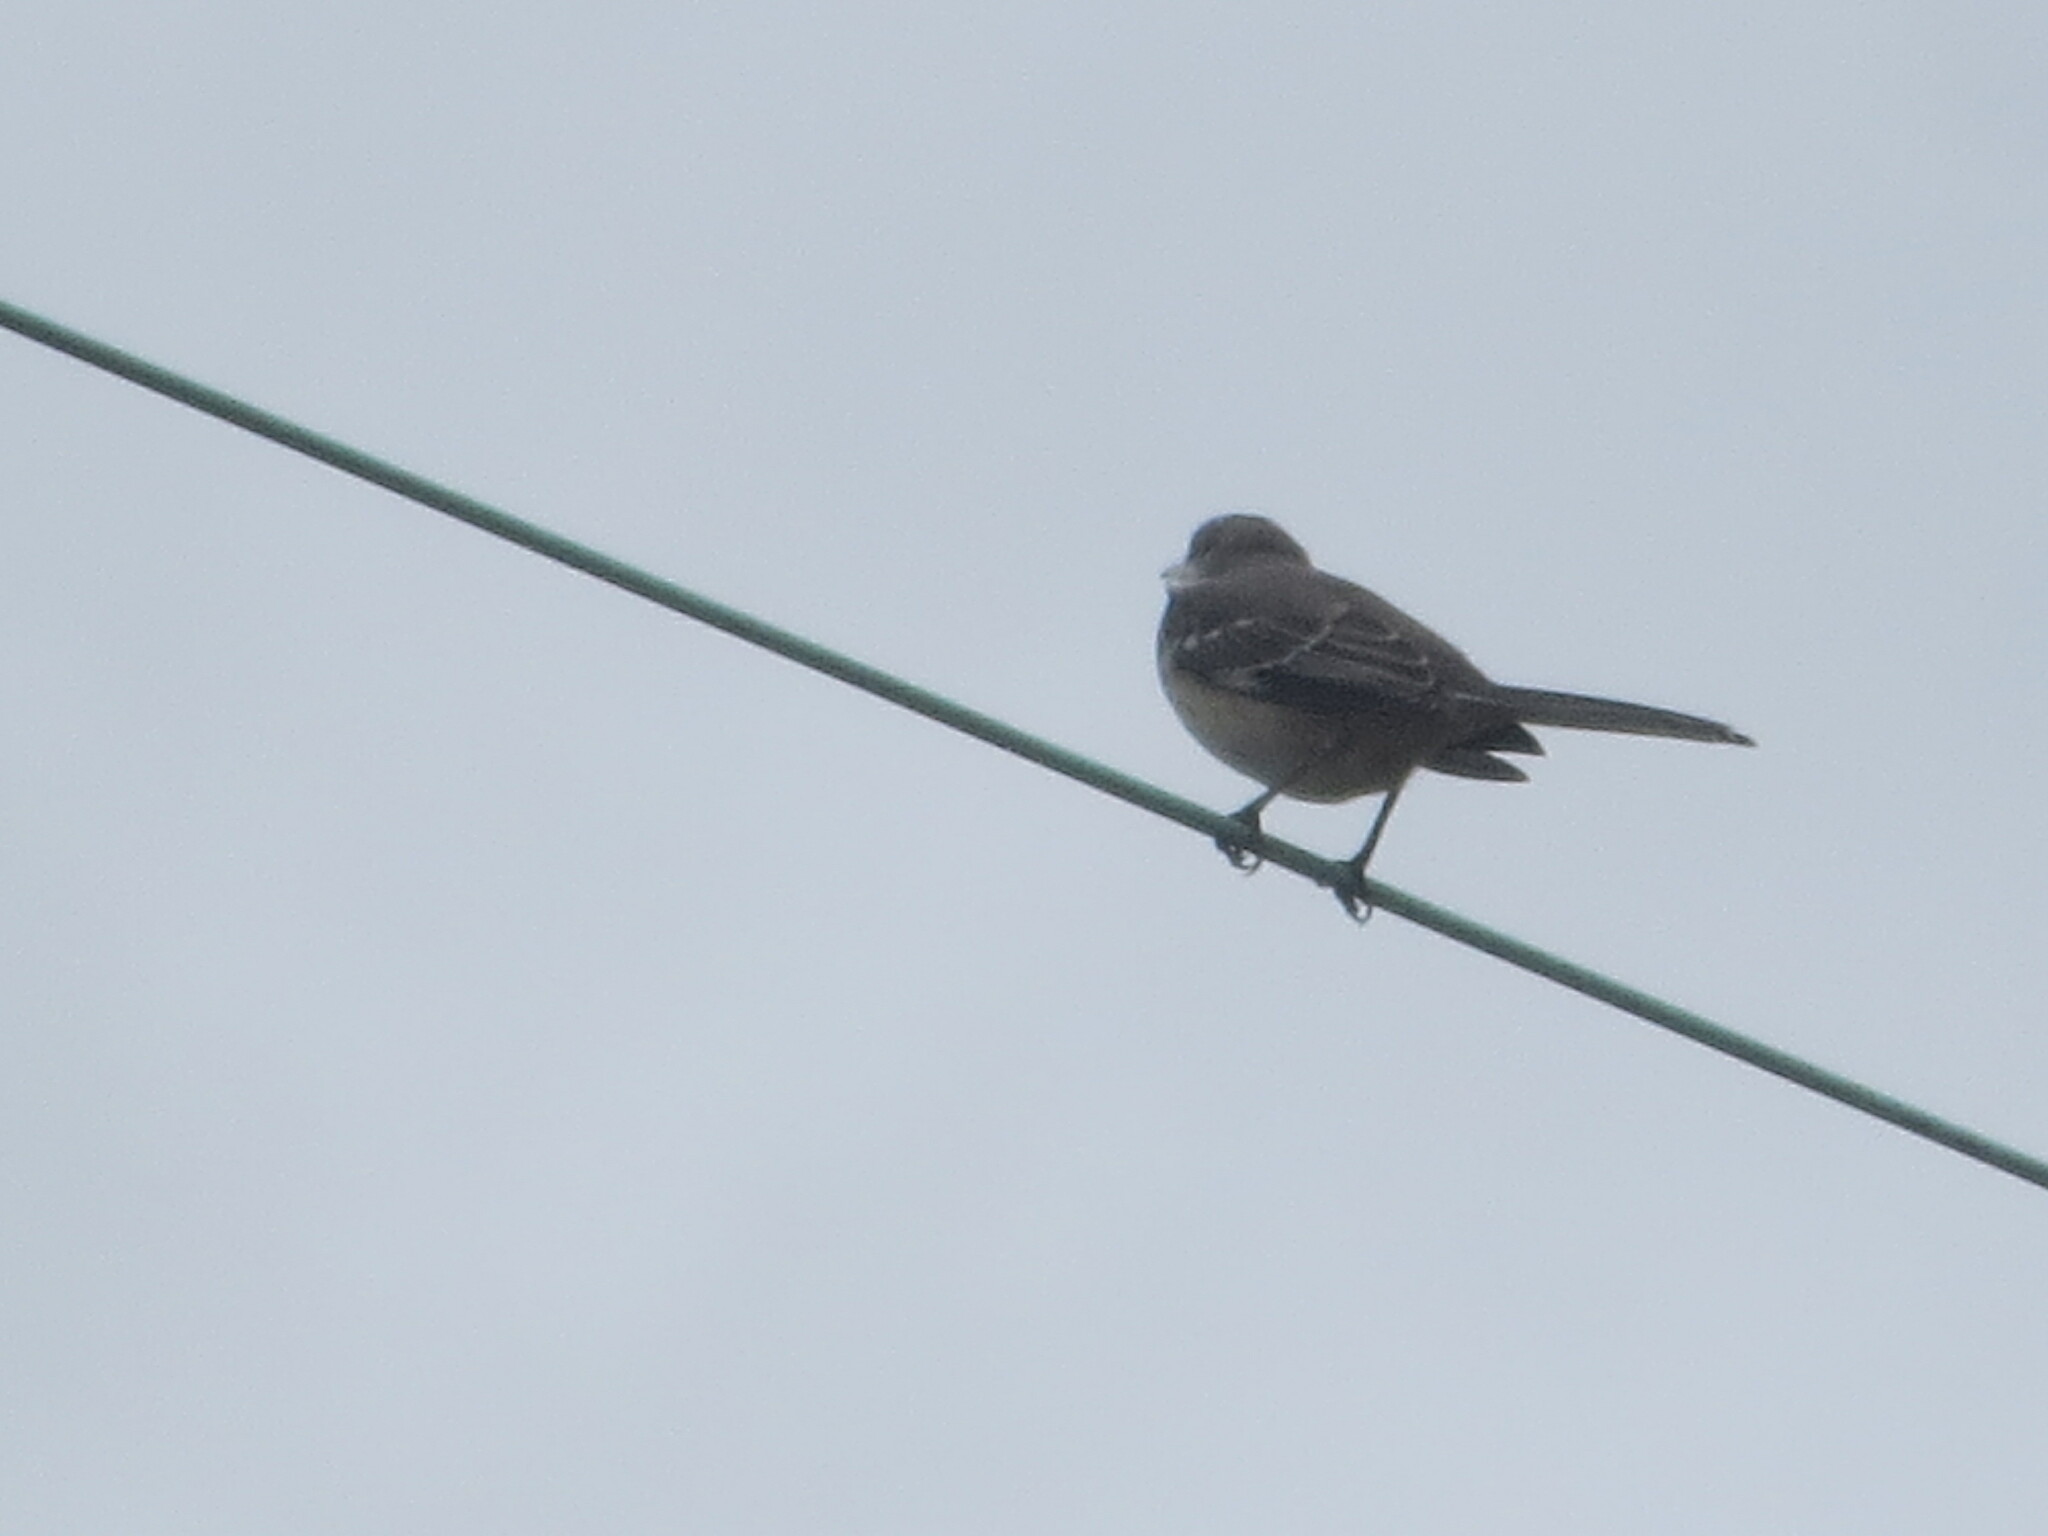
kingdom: Animalia
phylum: Chordata
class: Aves
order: Passeriformes
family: Mimidae
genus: Mimus
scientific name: Mimus polyglottos
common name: Northern mockingbird
